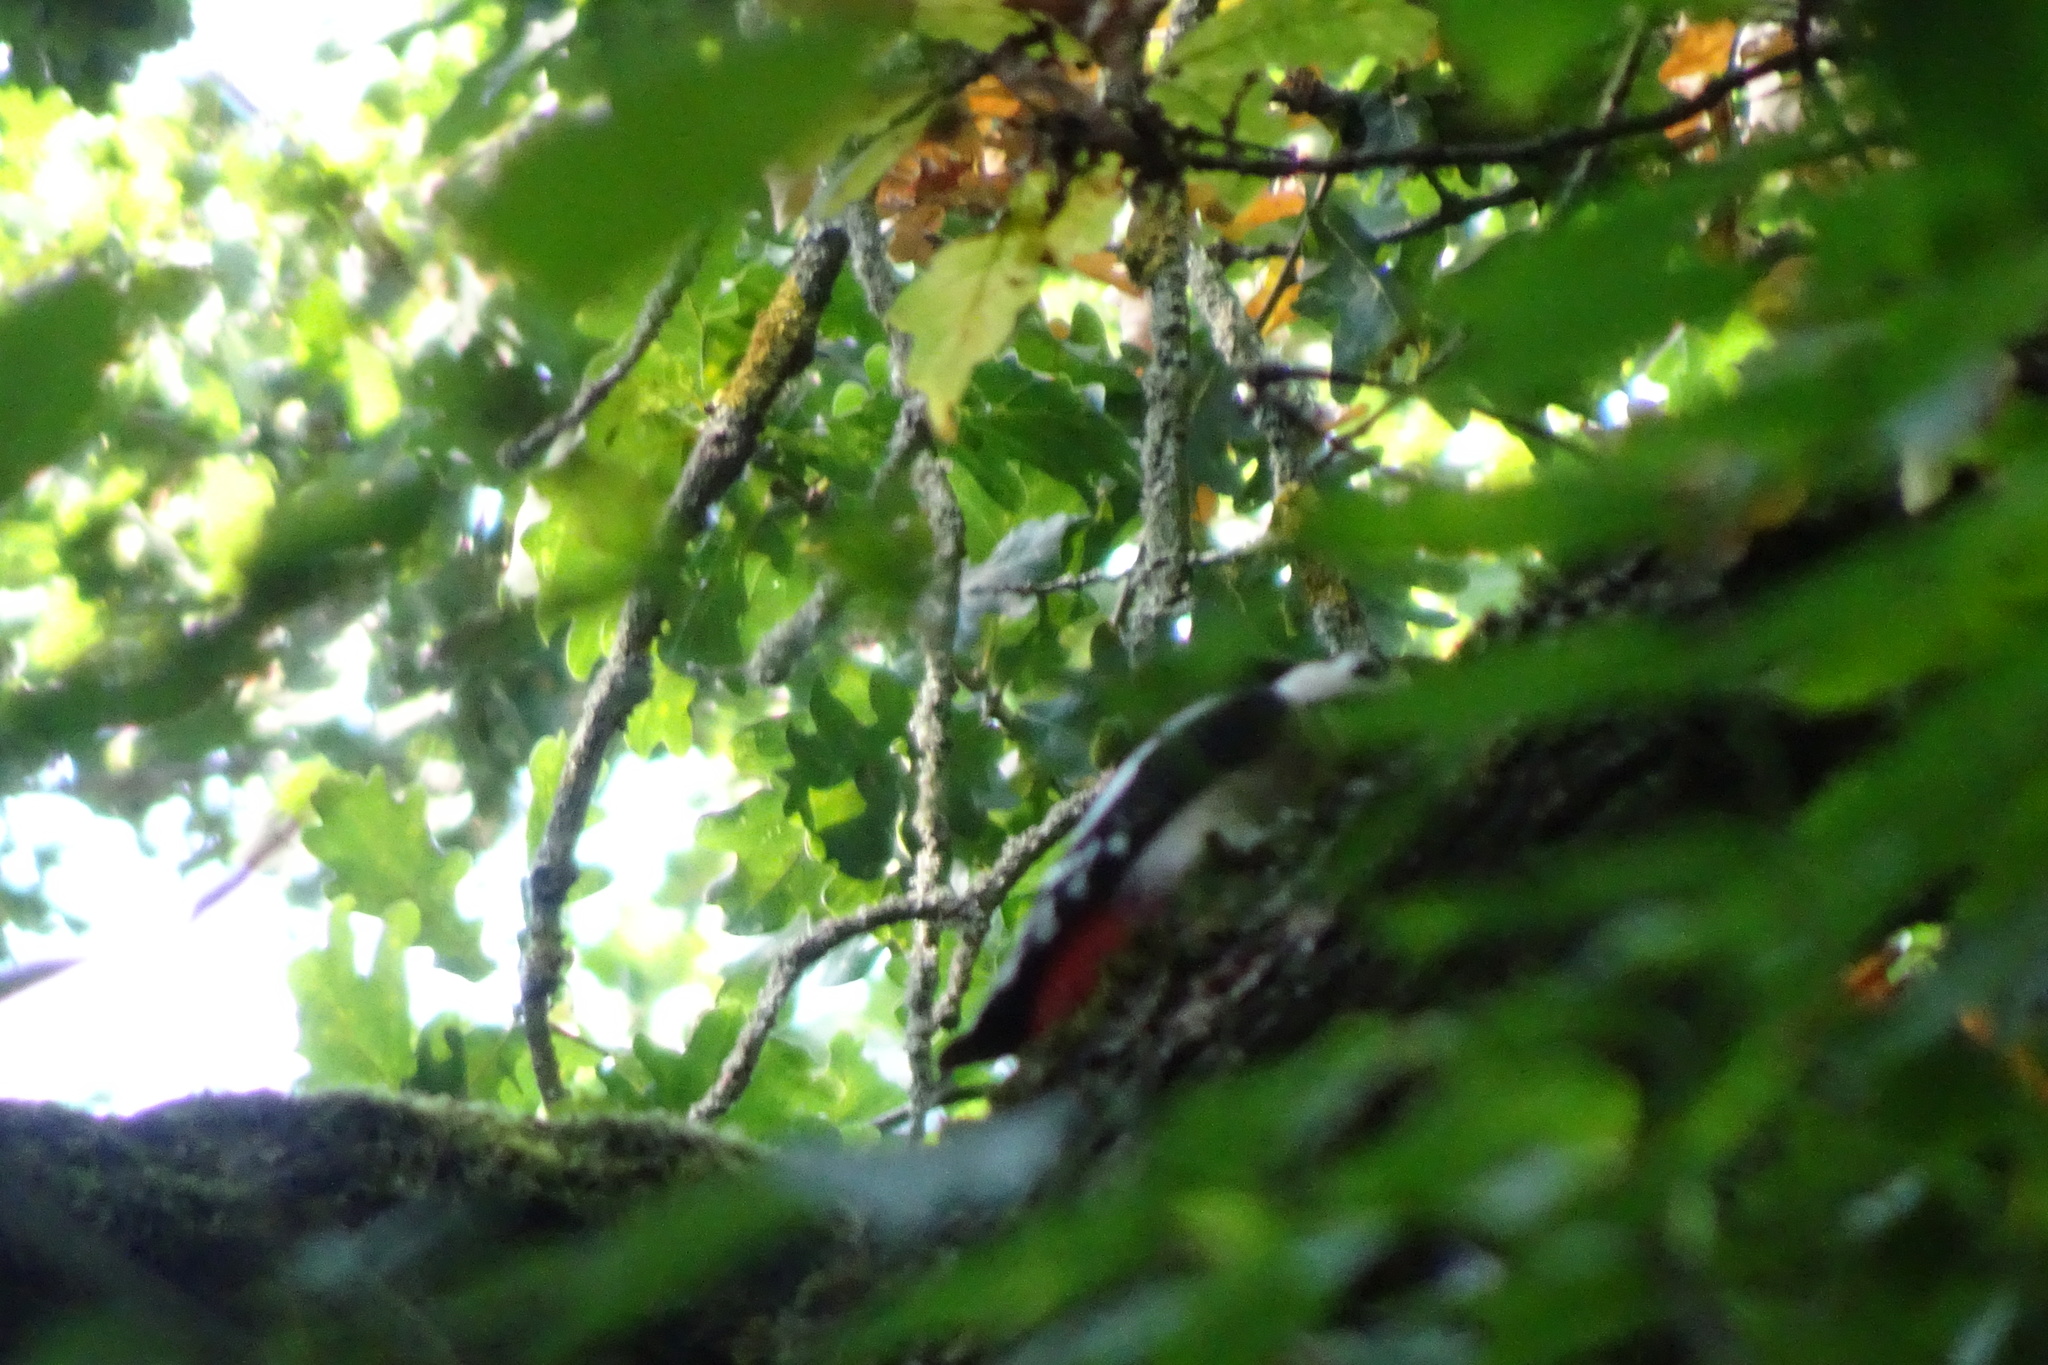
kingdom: Animalia
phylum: Chordata
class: Aves
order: Piciformes
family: Picidae
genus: Dendrocopos
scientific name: Dendrocopos major
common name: Great spotted woodpecker
